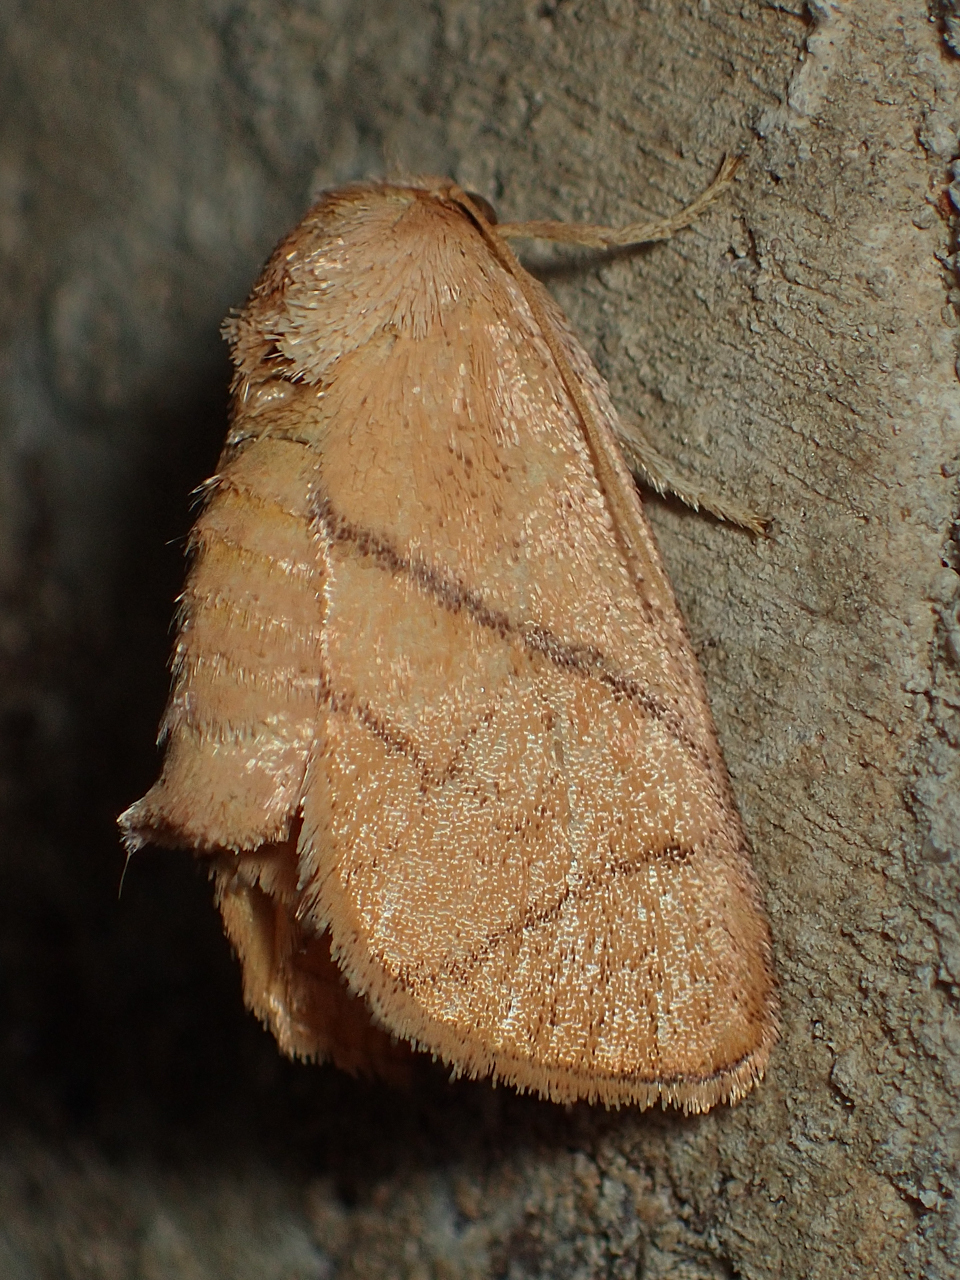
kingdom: Animalia
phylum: Arthropoda
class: Insecta
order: Lepidoptera
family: Limacodidae
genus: Apoda
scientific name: Apoda y-inversa
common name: Yellow-collared slug moth
